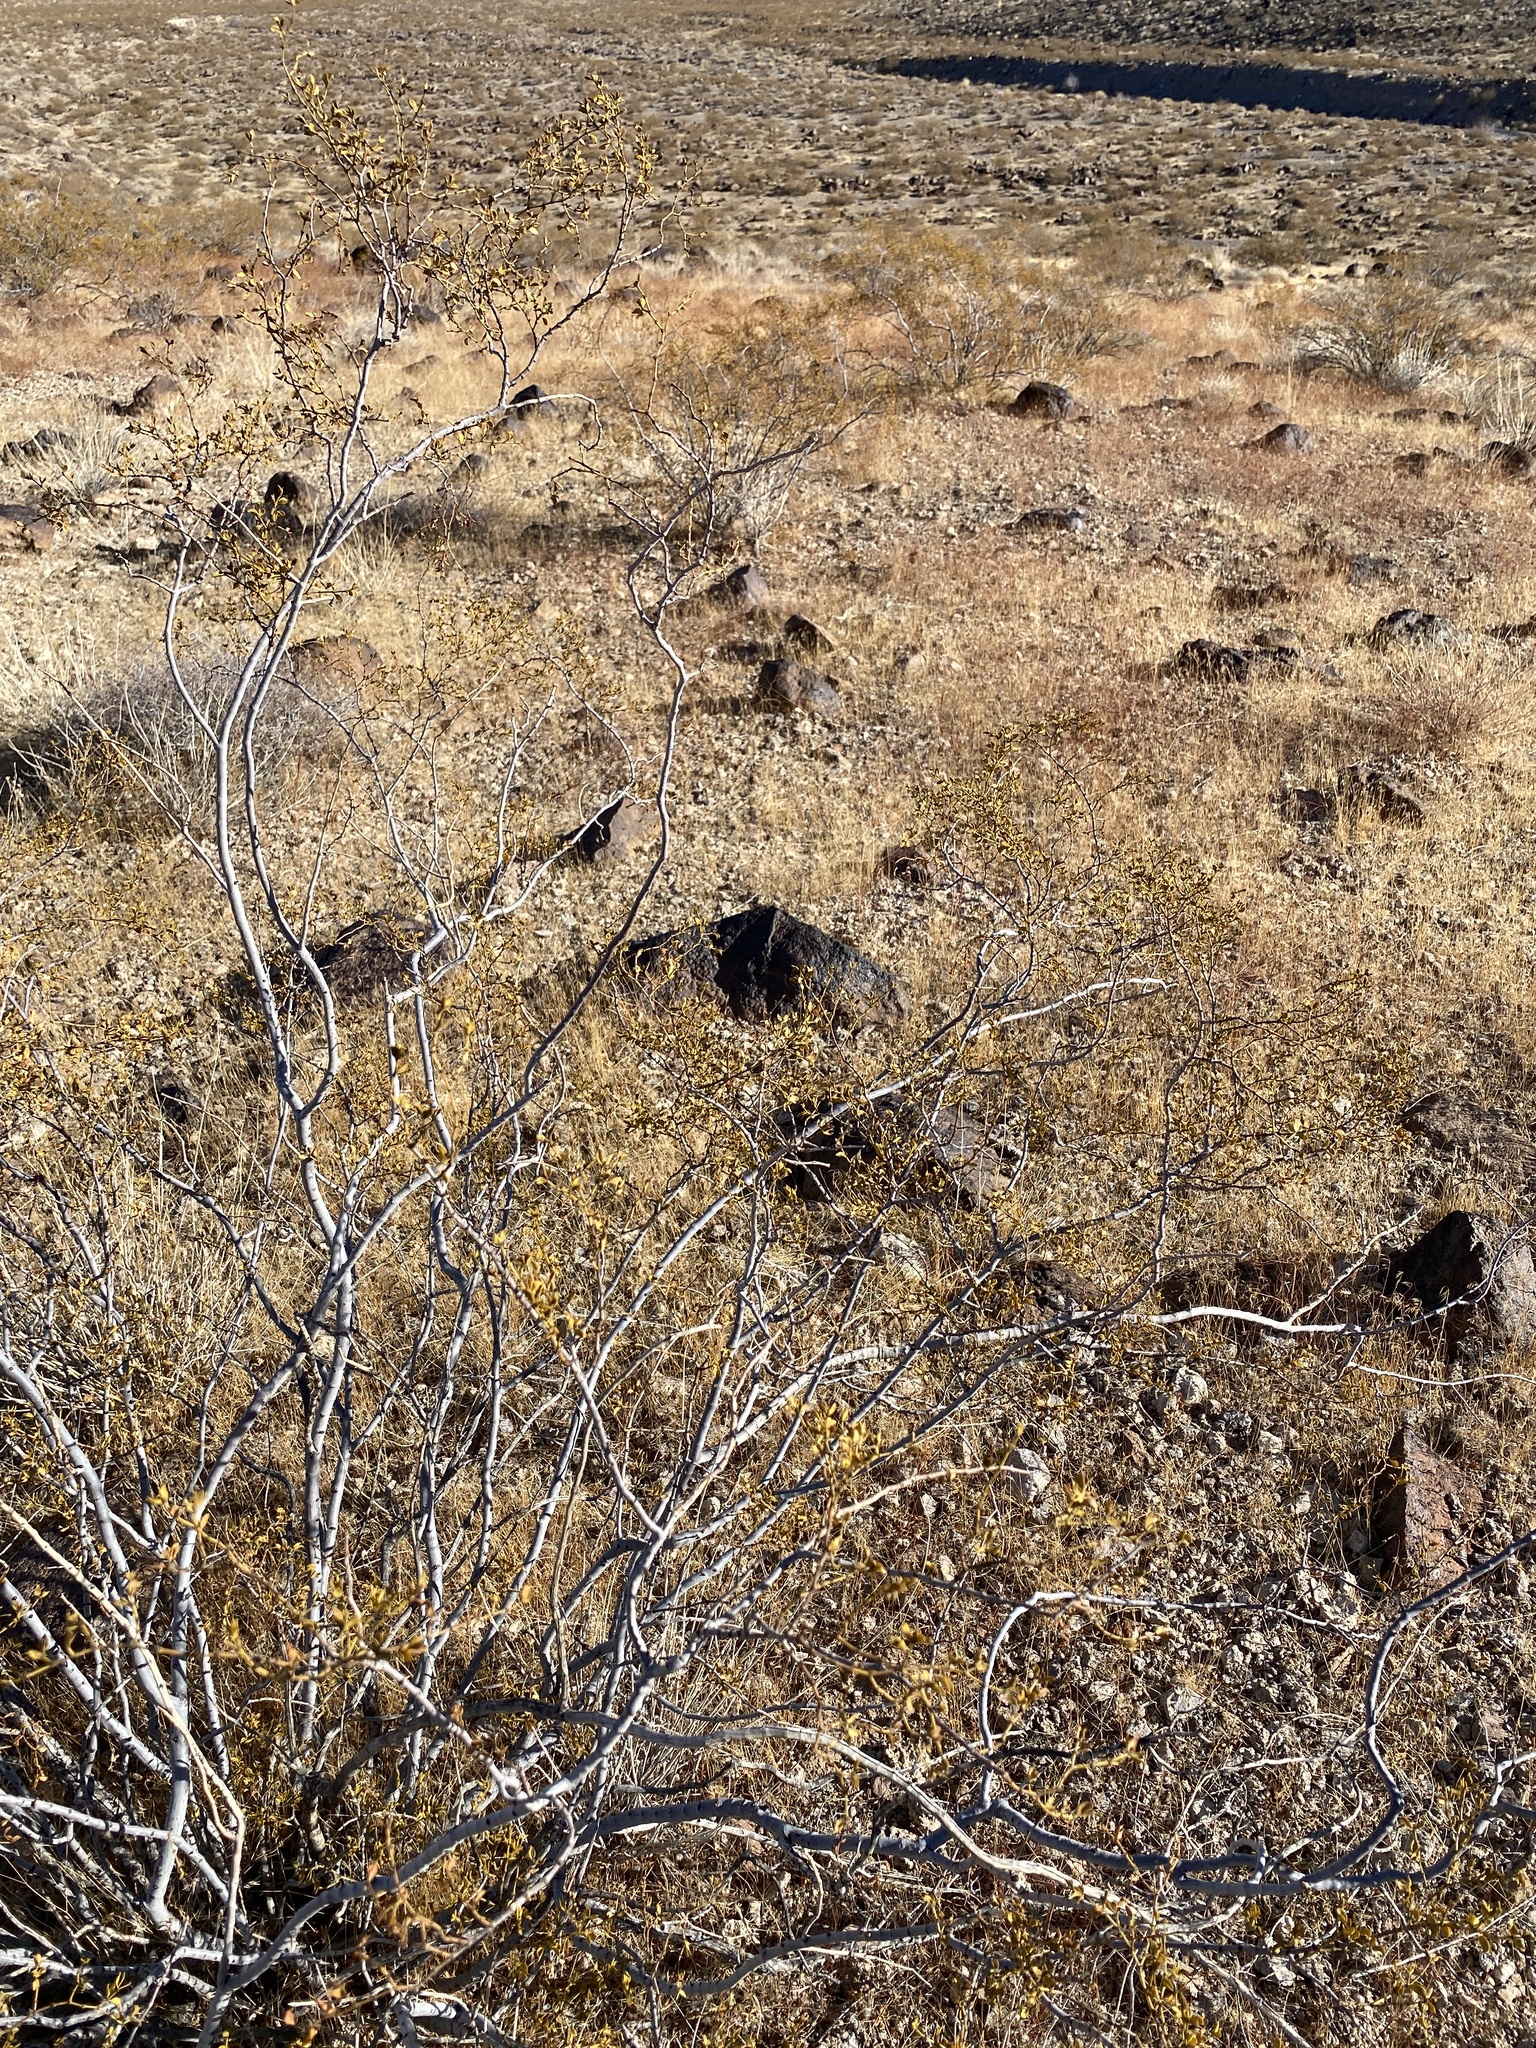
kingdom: Plantae
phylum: Tracheophyta
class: Magnoliopsida
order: Zygophyllales
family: Zygophyllaceae
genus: Larrea
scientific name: Larrea tridentata
